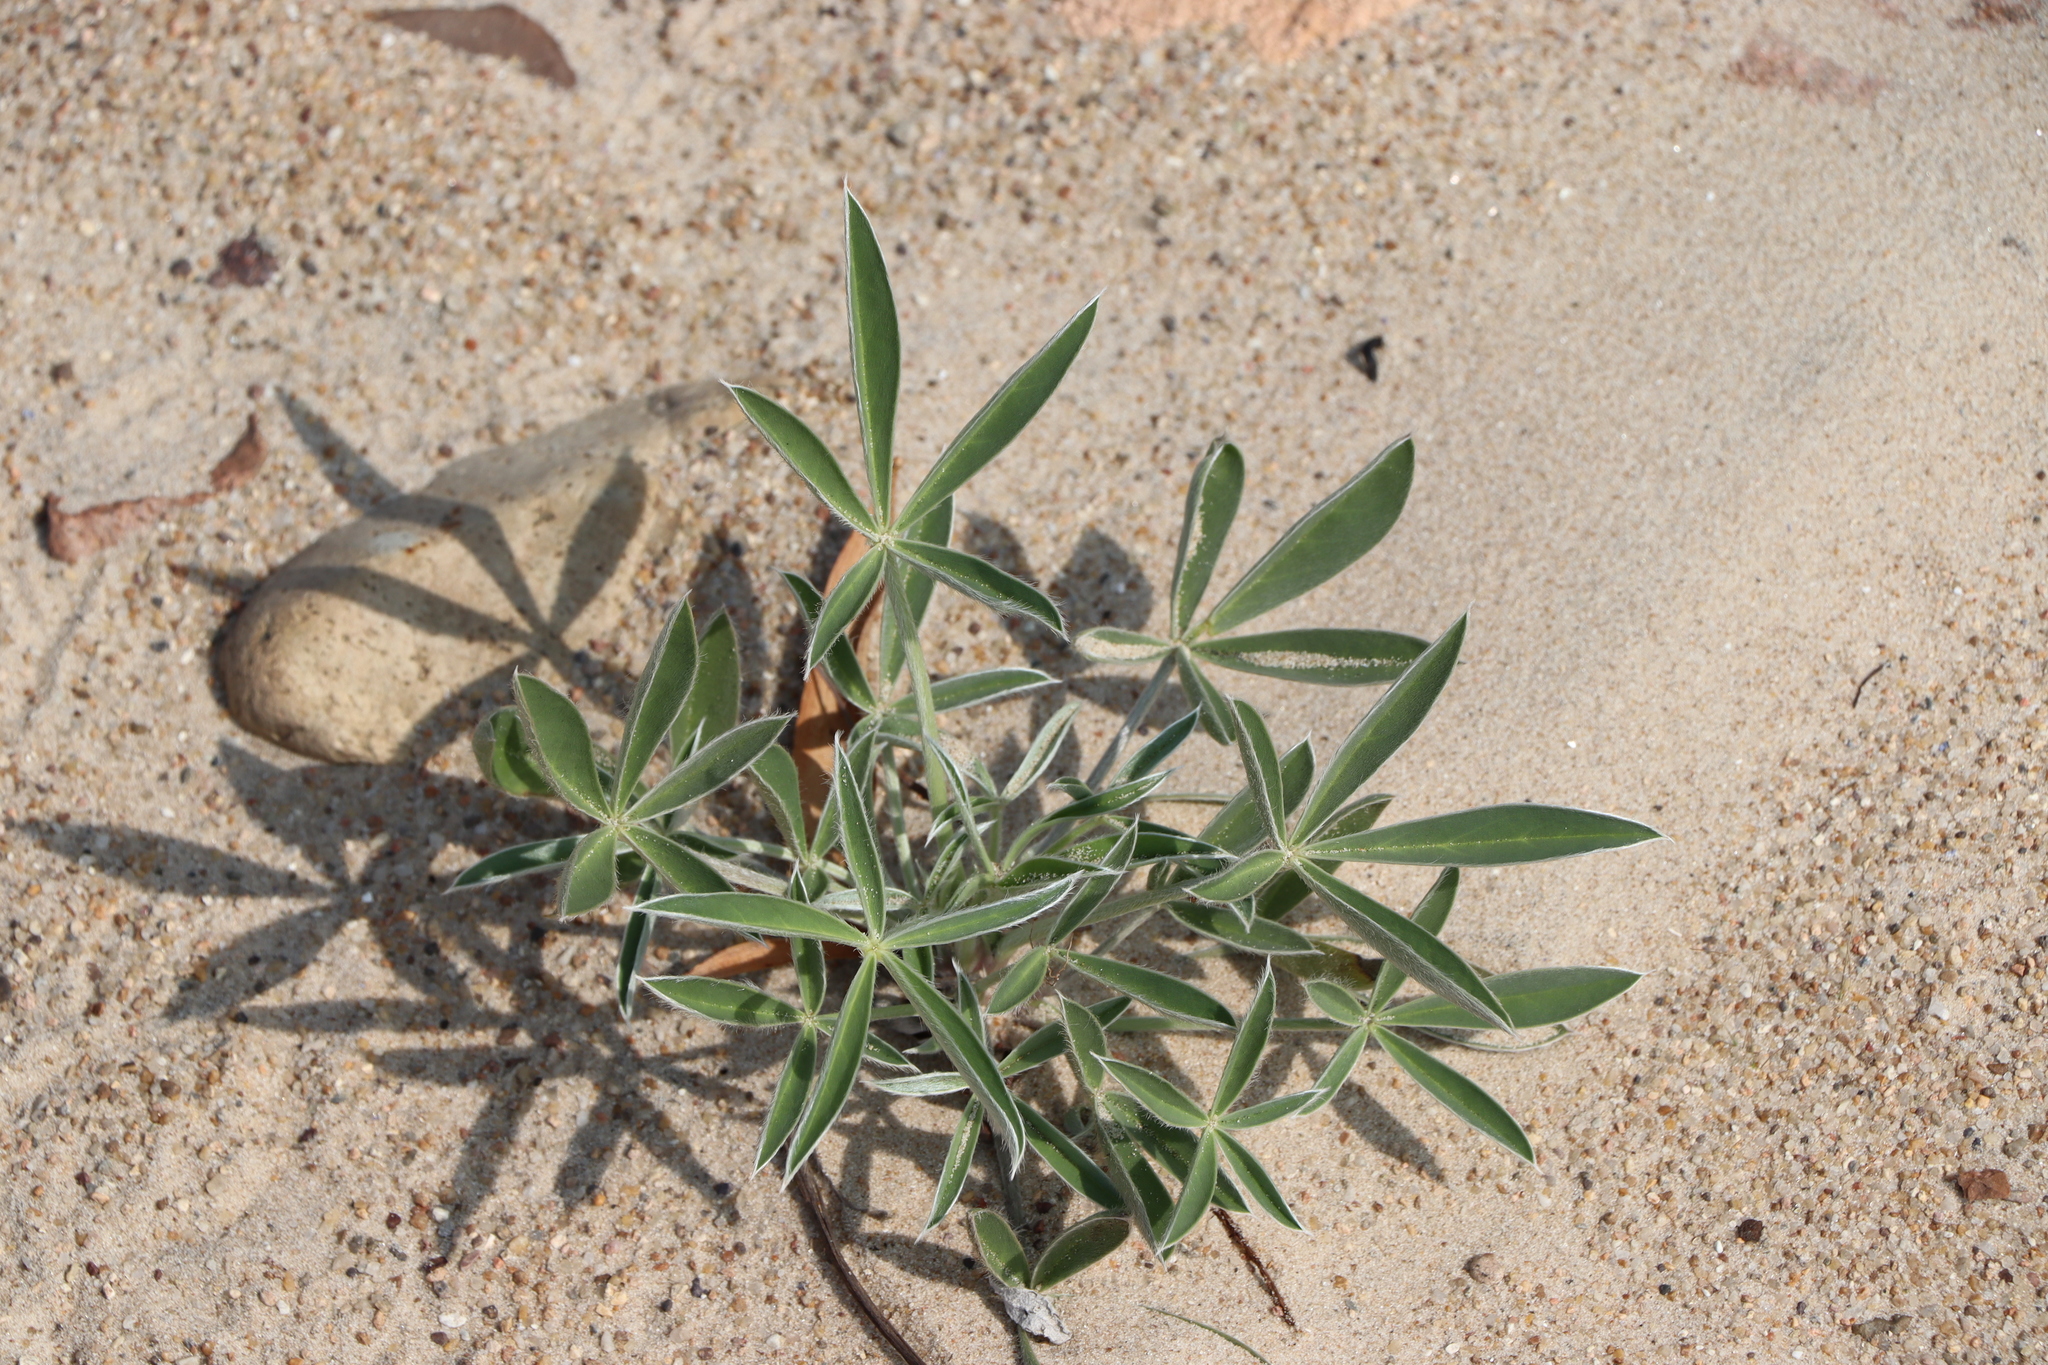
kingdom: Plantae
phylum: Tracheophyta
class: Magnoliopsida
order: Fabales
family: Fabaceae
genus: Lupinus
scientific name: Lupinus multiflorus
